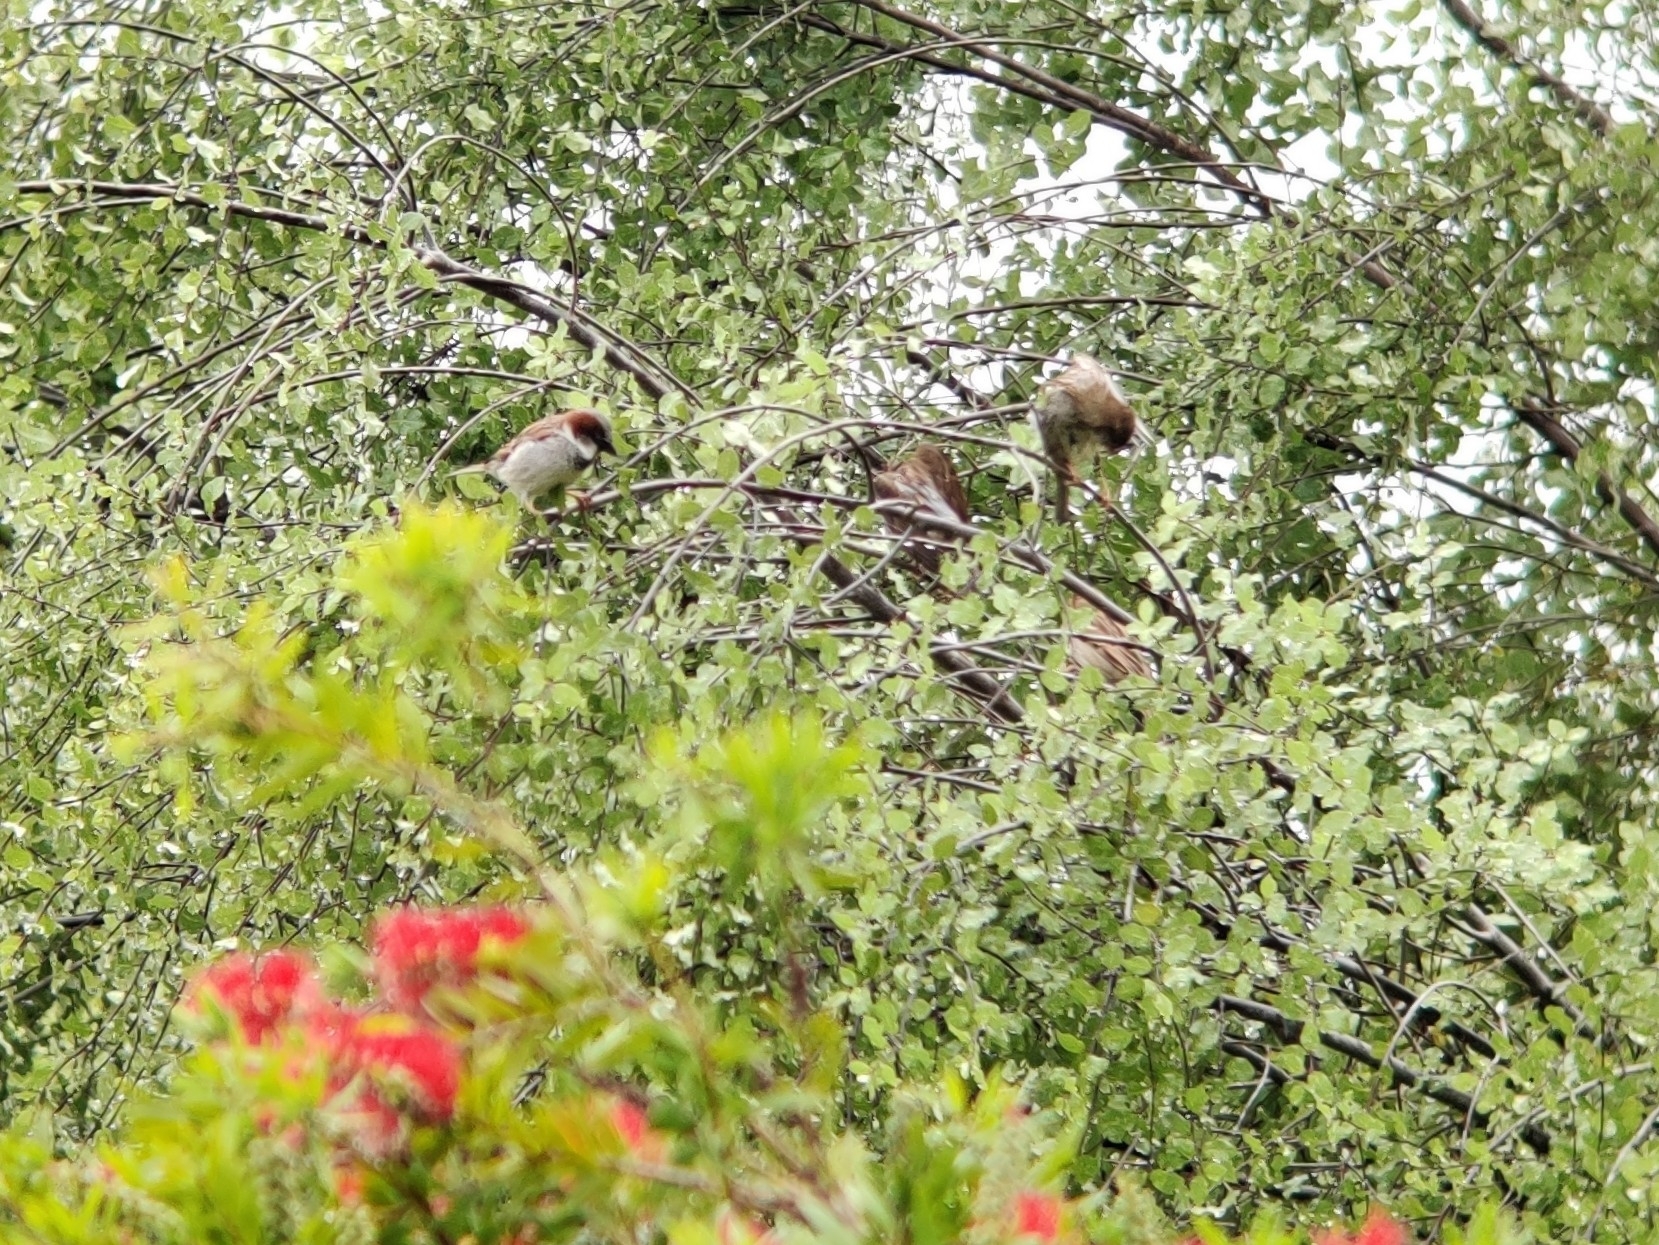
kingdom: Animalia
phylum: Chordata
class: Aves
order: Passeriformes
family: Passeridae
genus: Passer
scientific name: Passer domesticus
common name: House sparrow
